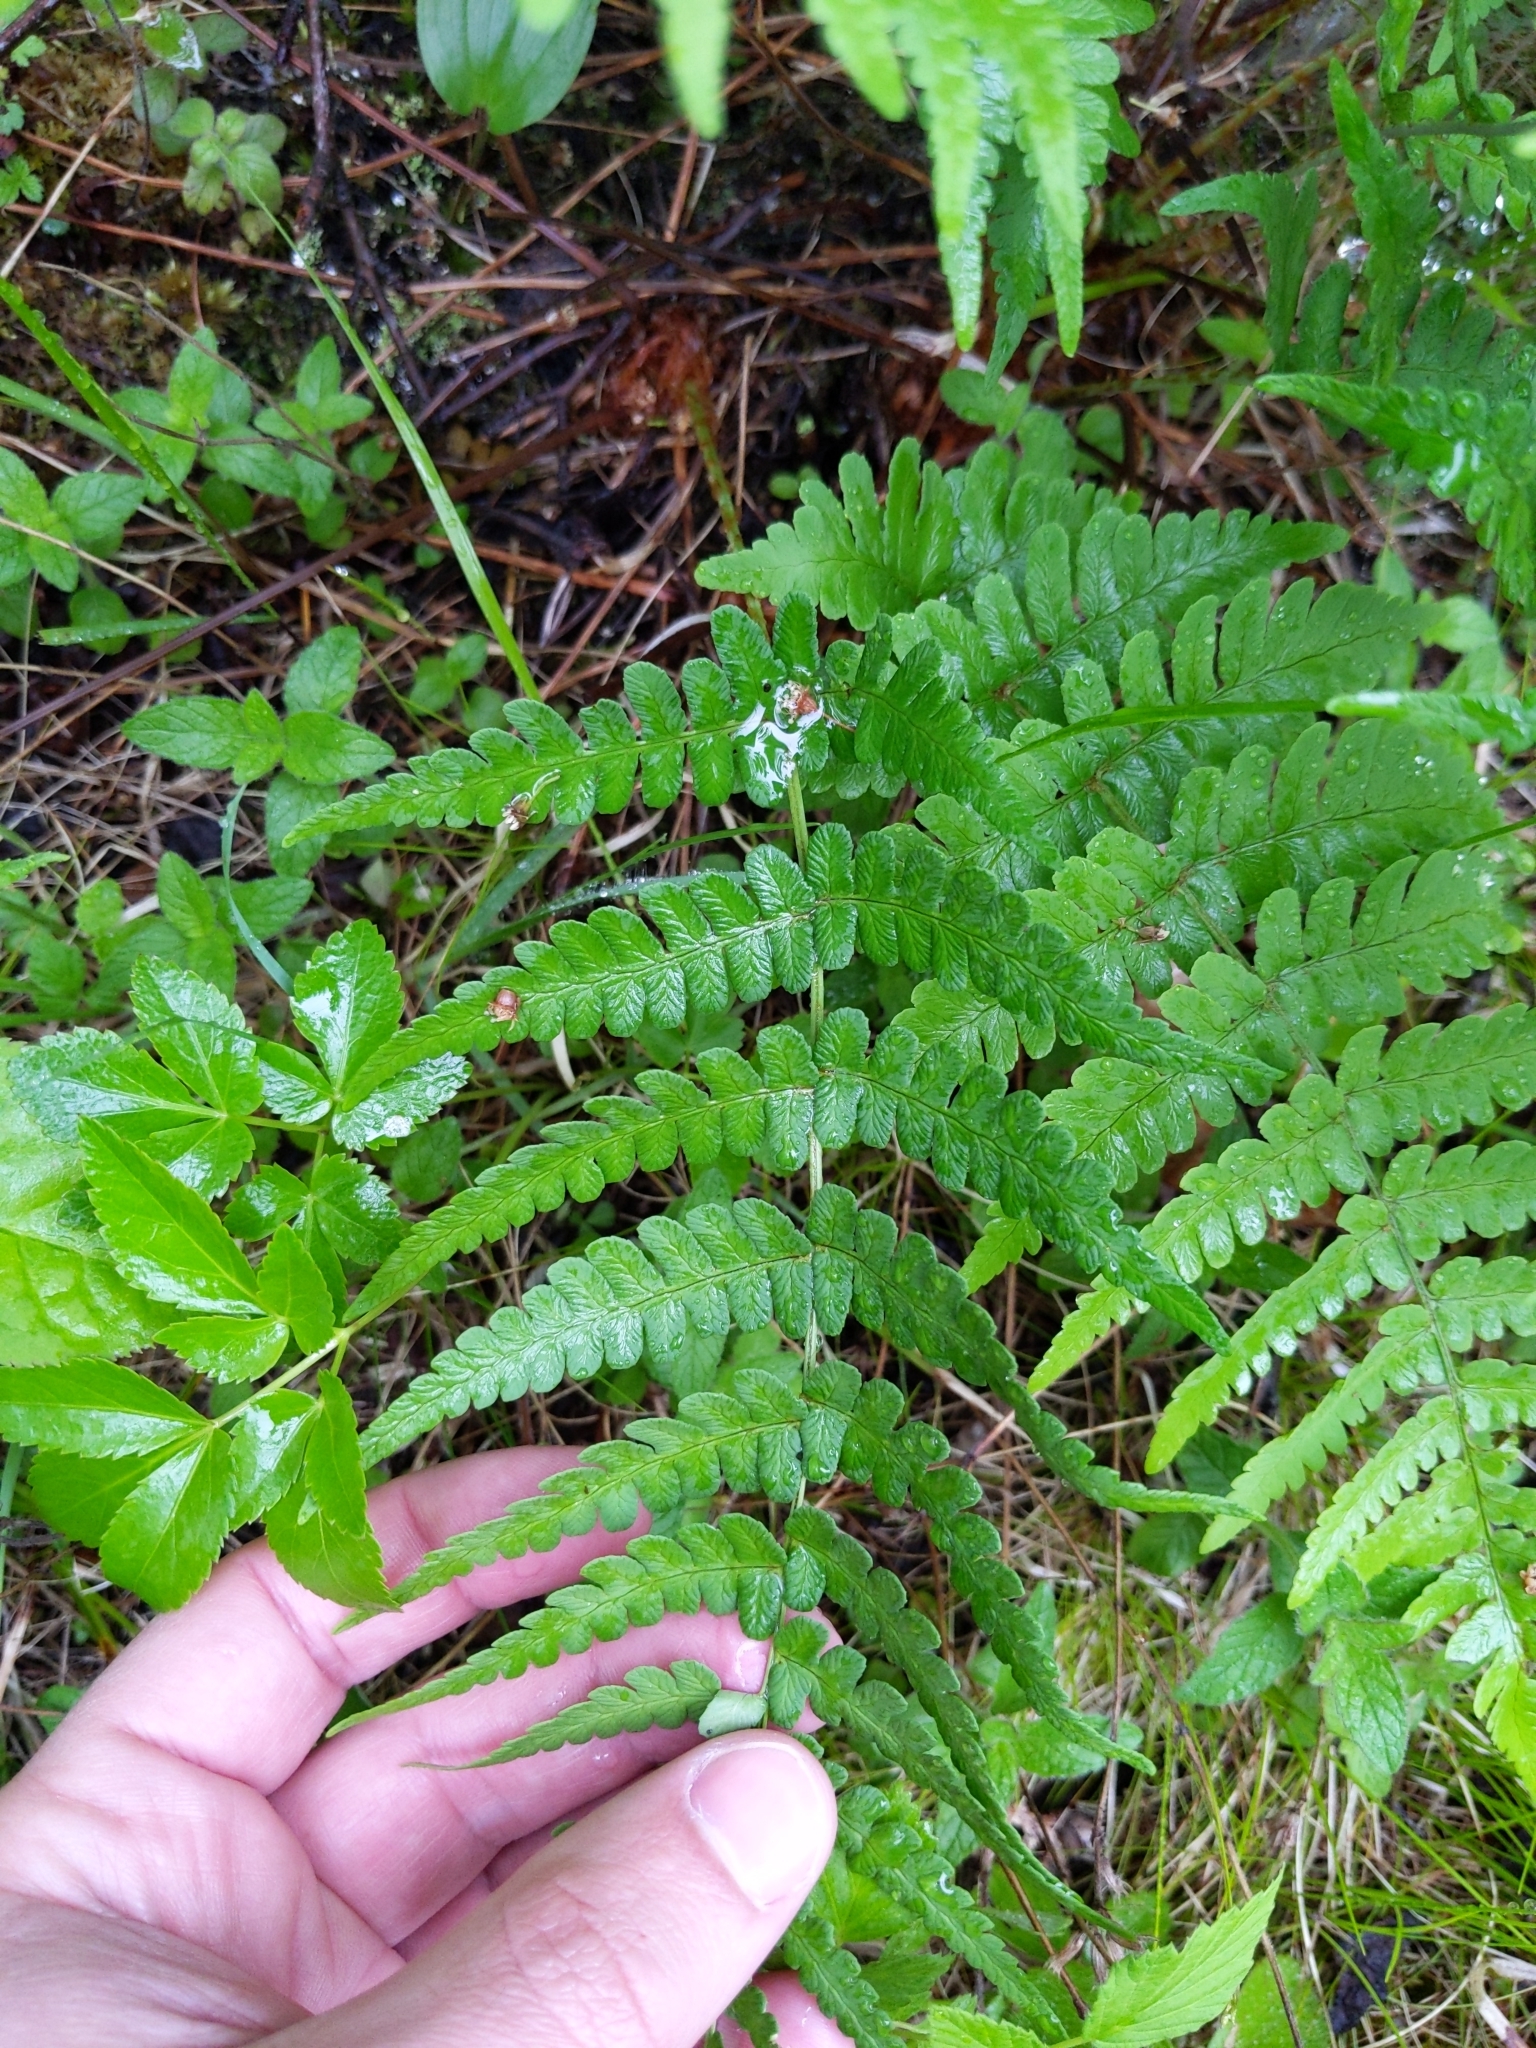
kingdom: Plantae
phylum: Tracheophyta
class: Polypodiopsida
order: Polypodiales
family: Dryopteridaceae
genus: Dryopteris
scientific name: Dryopteris marginalis
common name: Marginal wood fern
